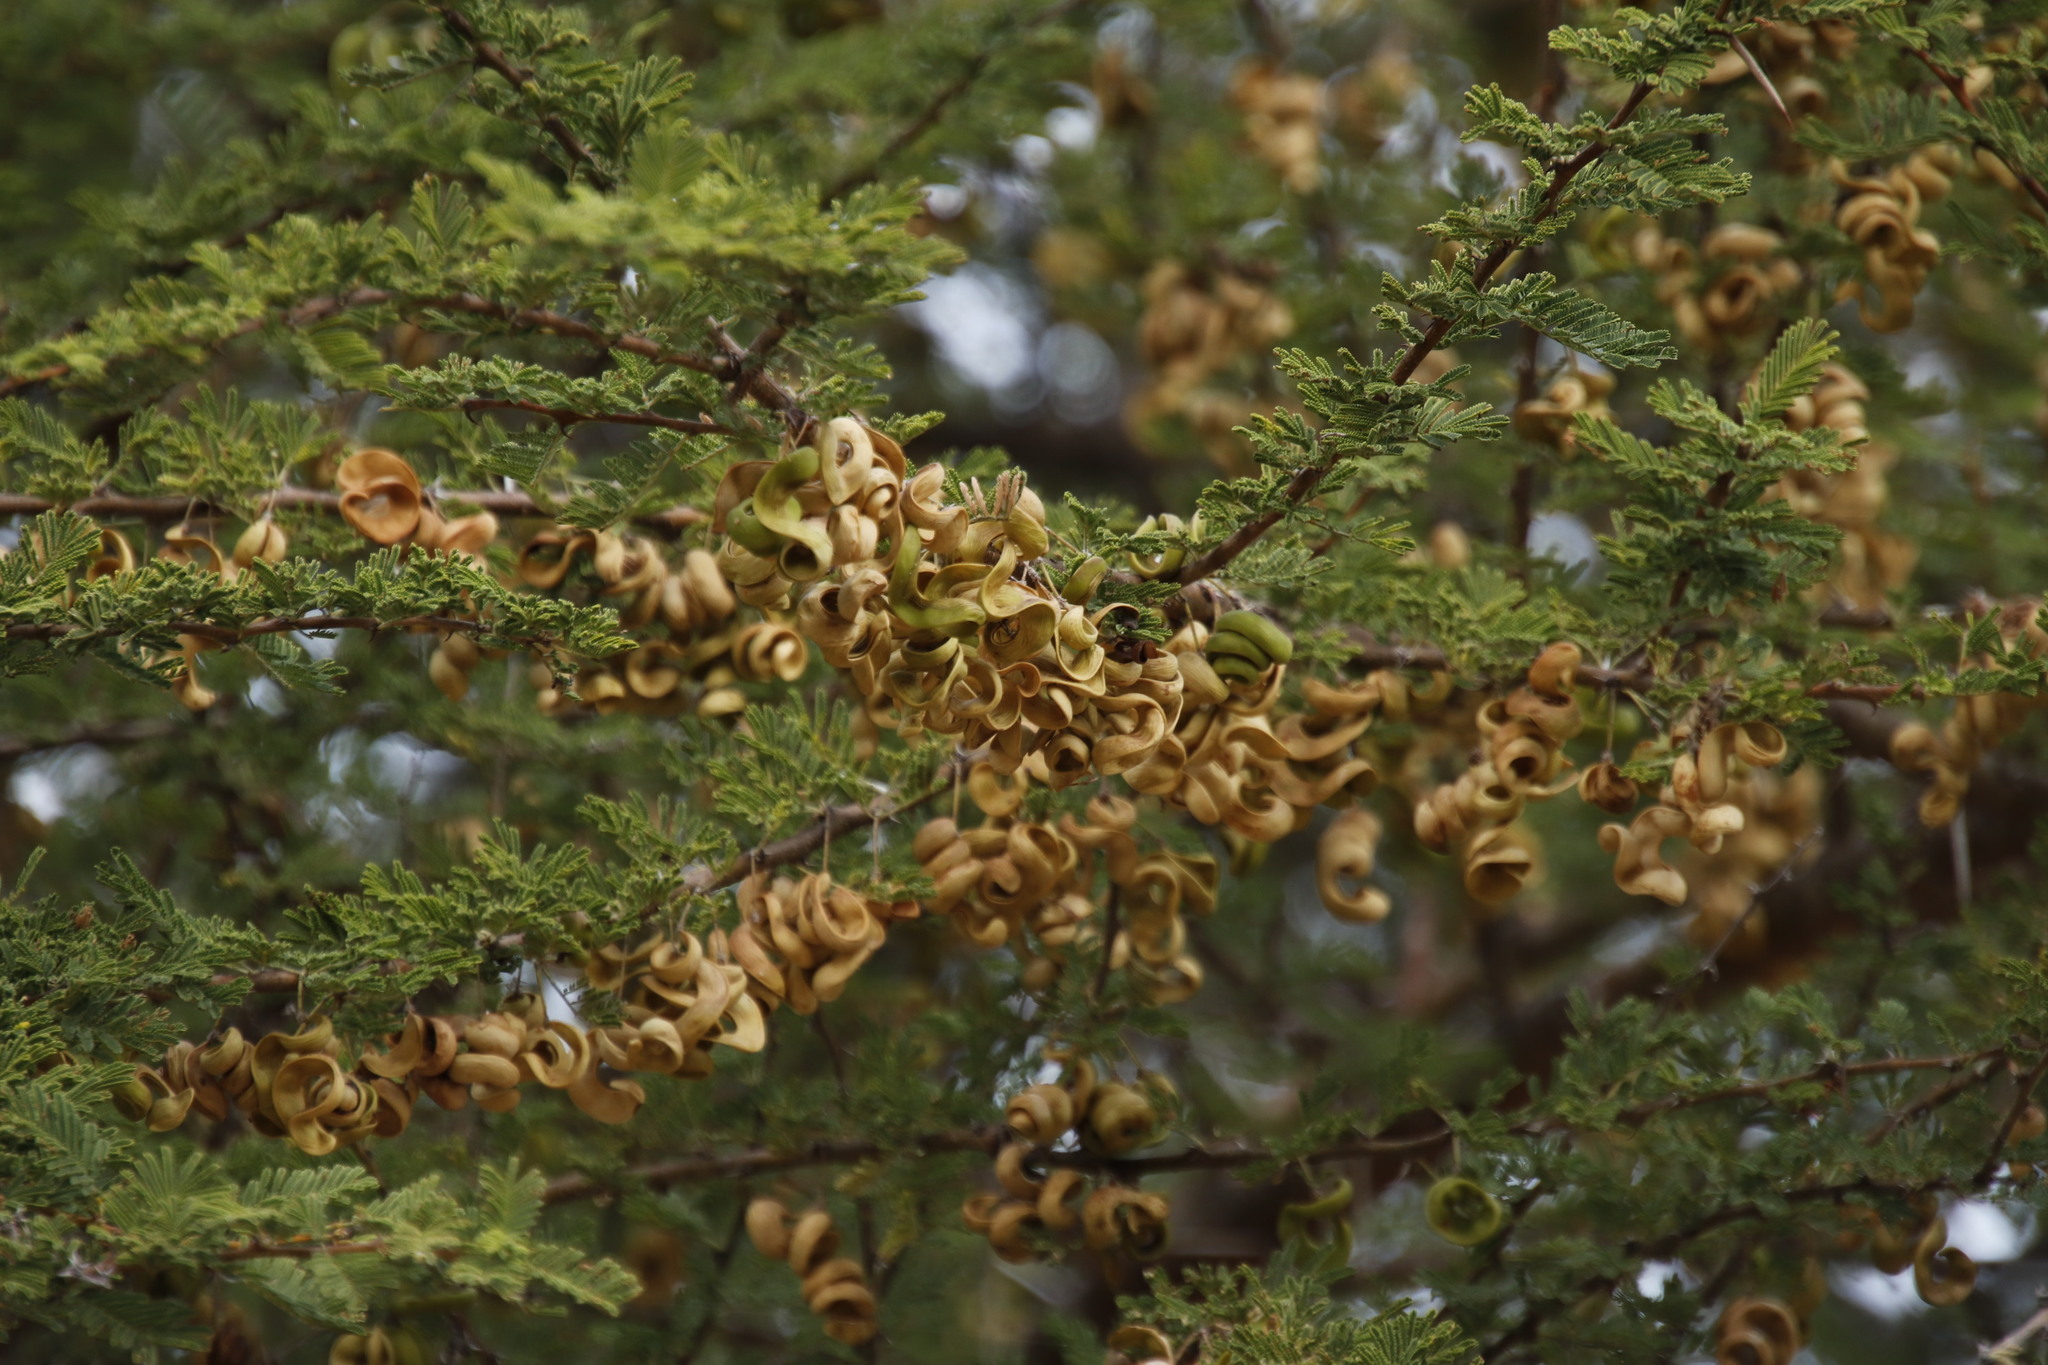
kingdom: Plantae
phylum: Tracheophyta
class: Magnoliopsida
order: Fabales
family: Fabaceae
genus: Vachellia
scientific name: Vachellia tortilis
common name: Umbrella thorn acacia
